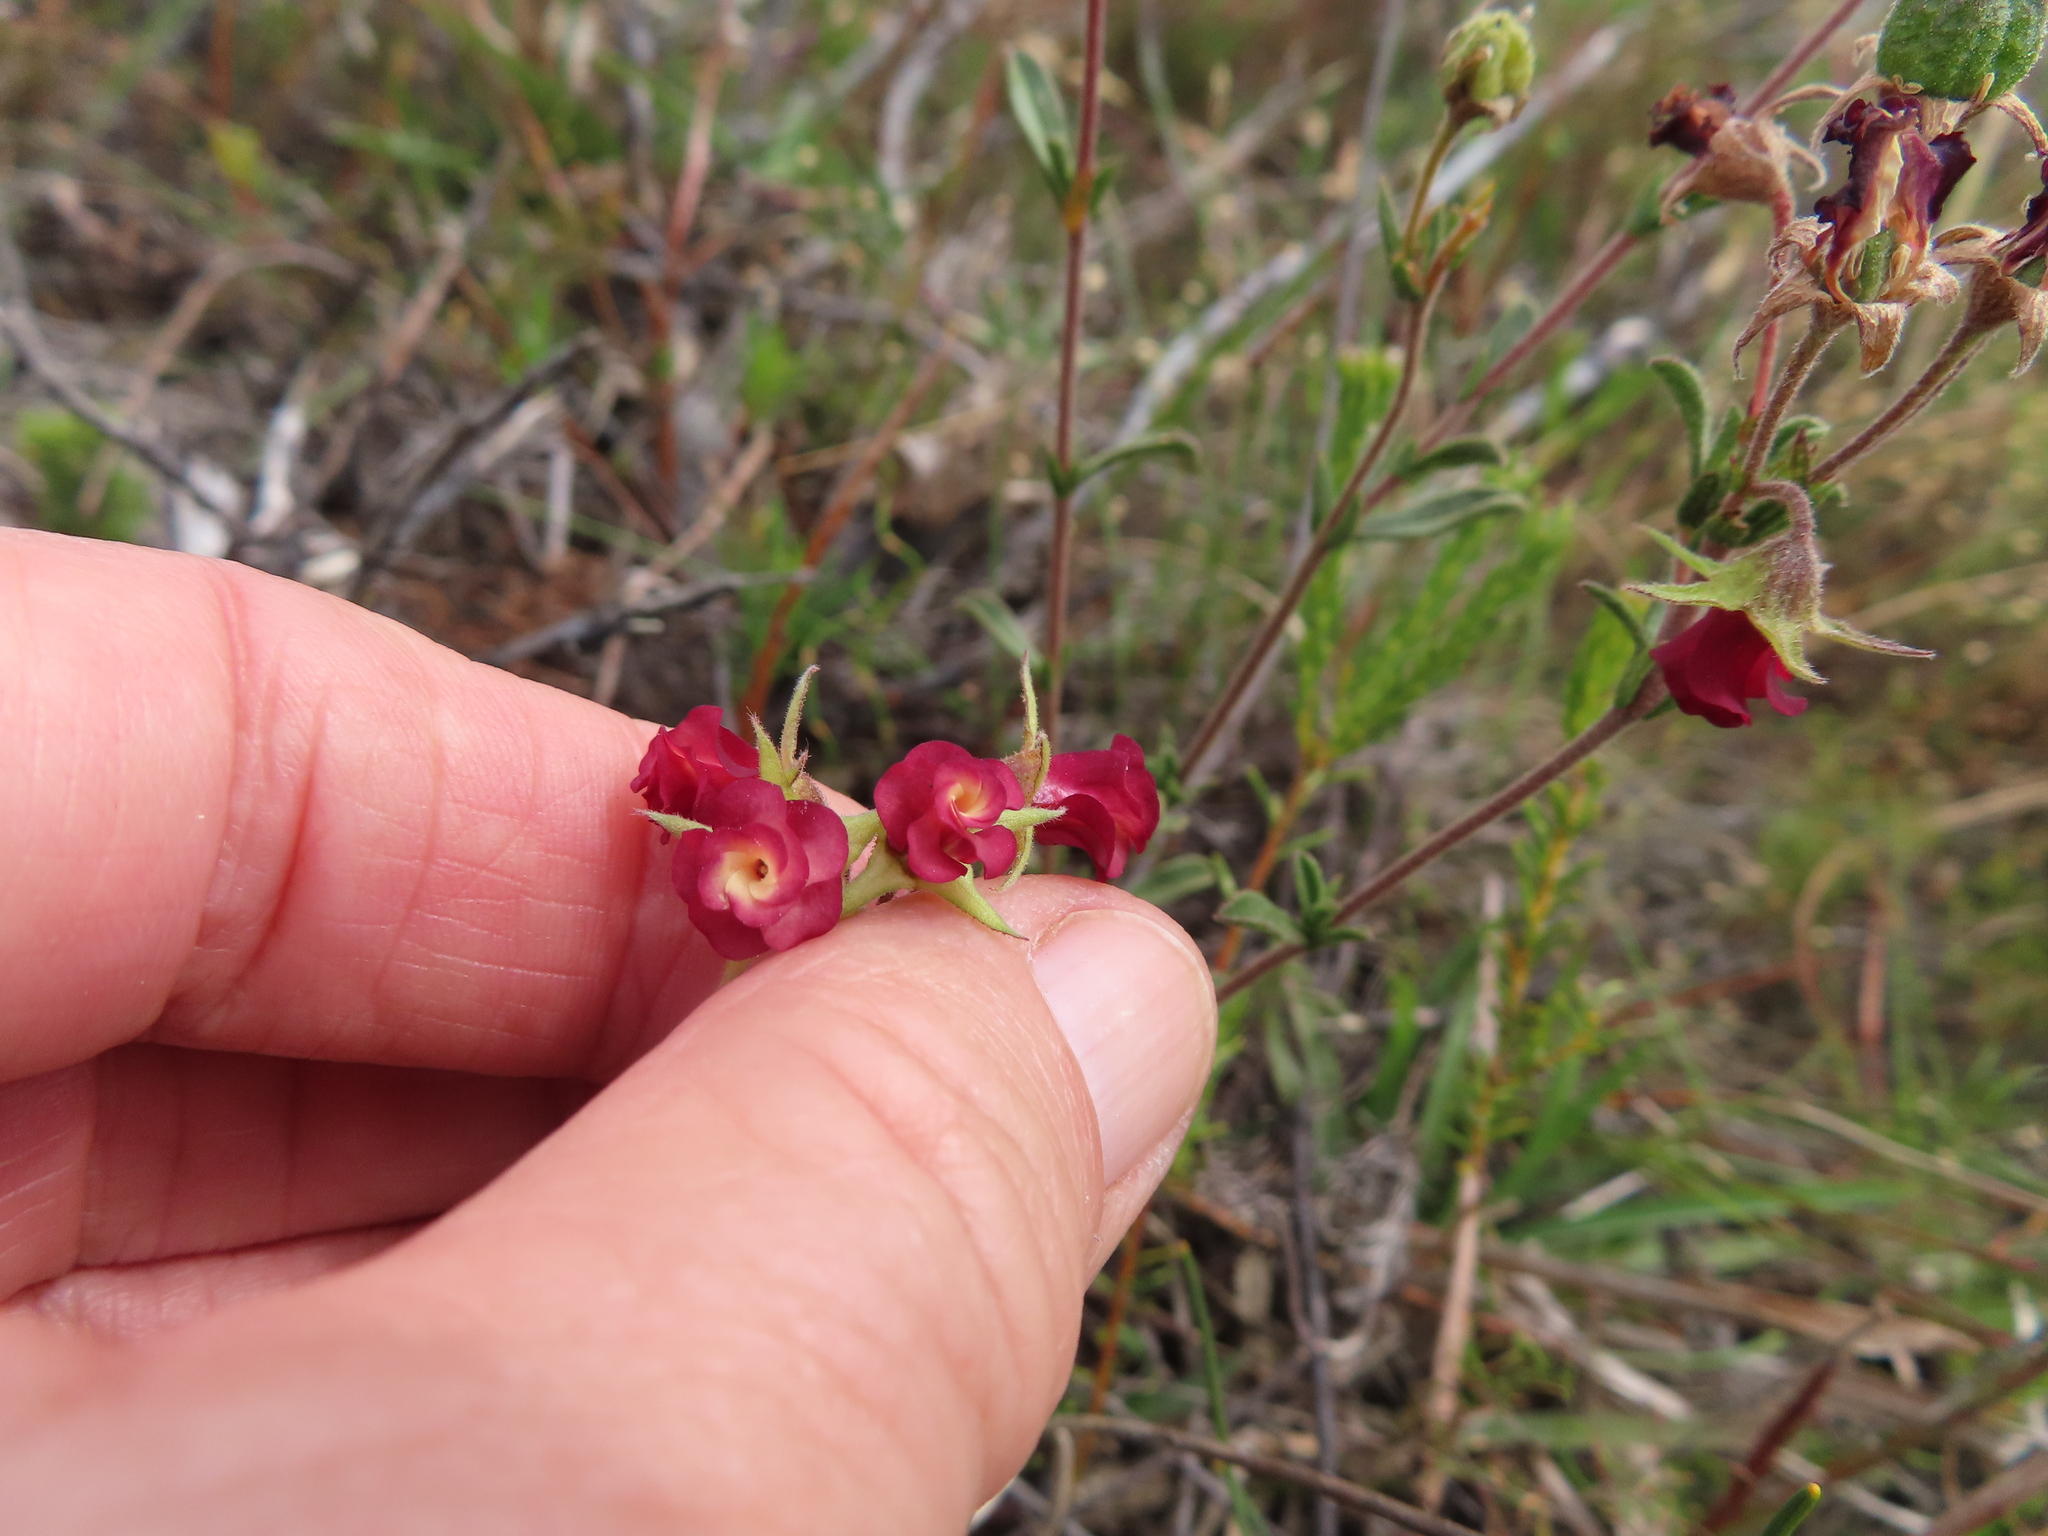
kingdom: Plantae
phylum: Tracheophyta
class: Magnoliopsida
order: Malvales
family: Malvaceae
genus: Hermannia
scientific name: Hermannia flammula
